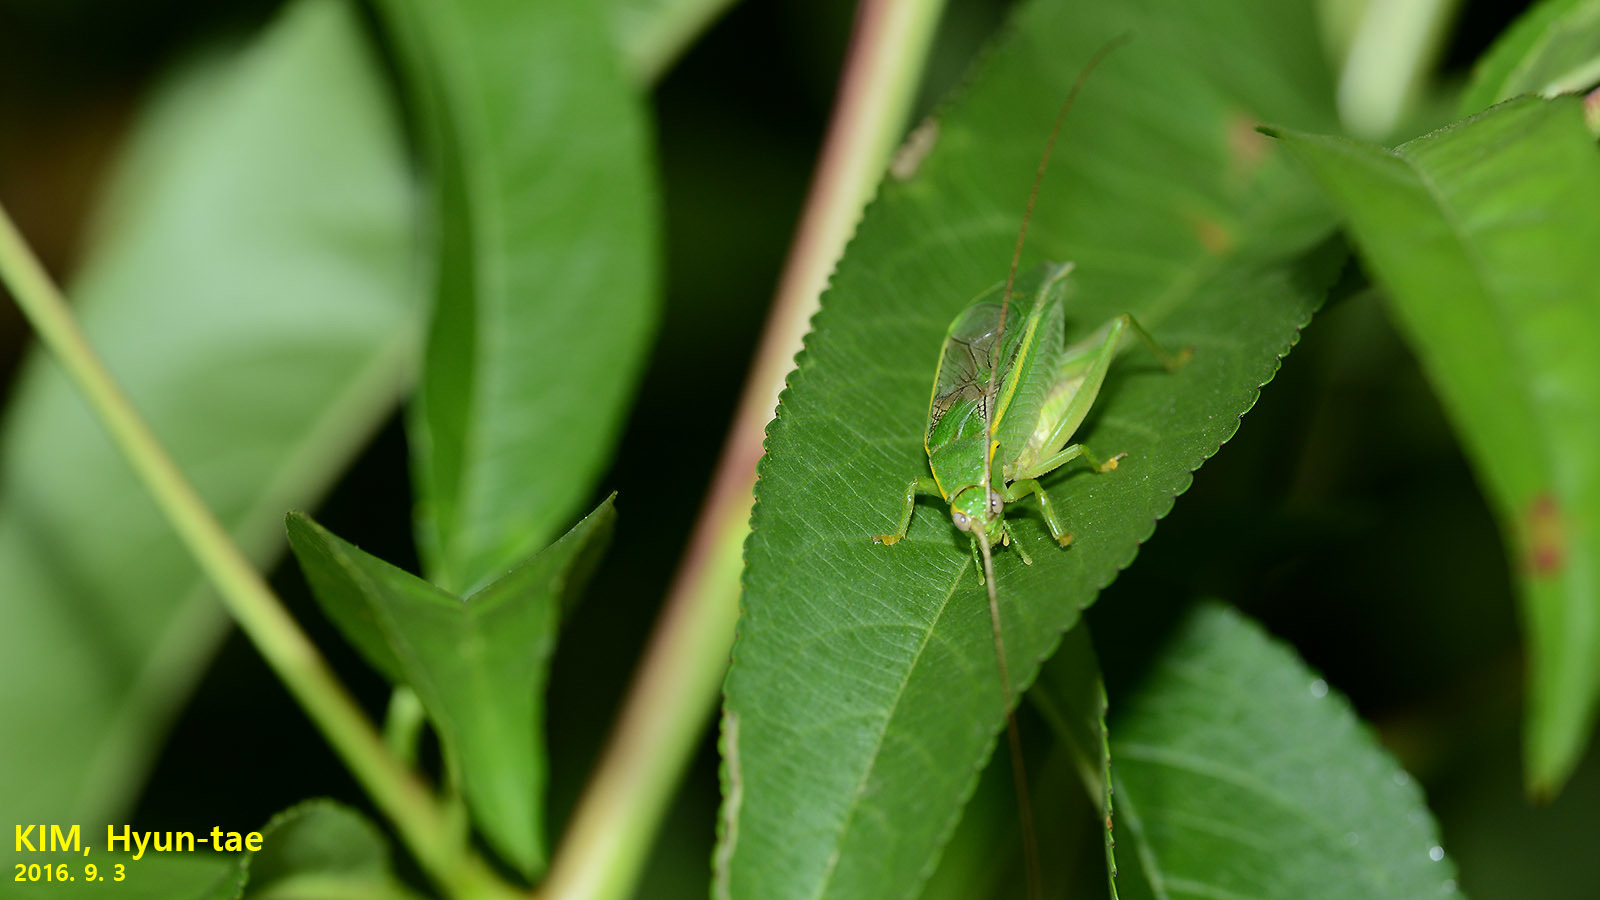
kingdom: Animalia
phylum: Arthropoda
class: Insecta
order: Orthoptera
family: Gryllidae
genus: Truljalia
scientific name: Truljalia hibinonis
